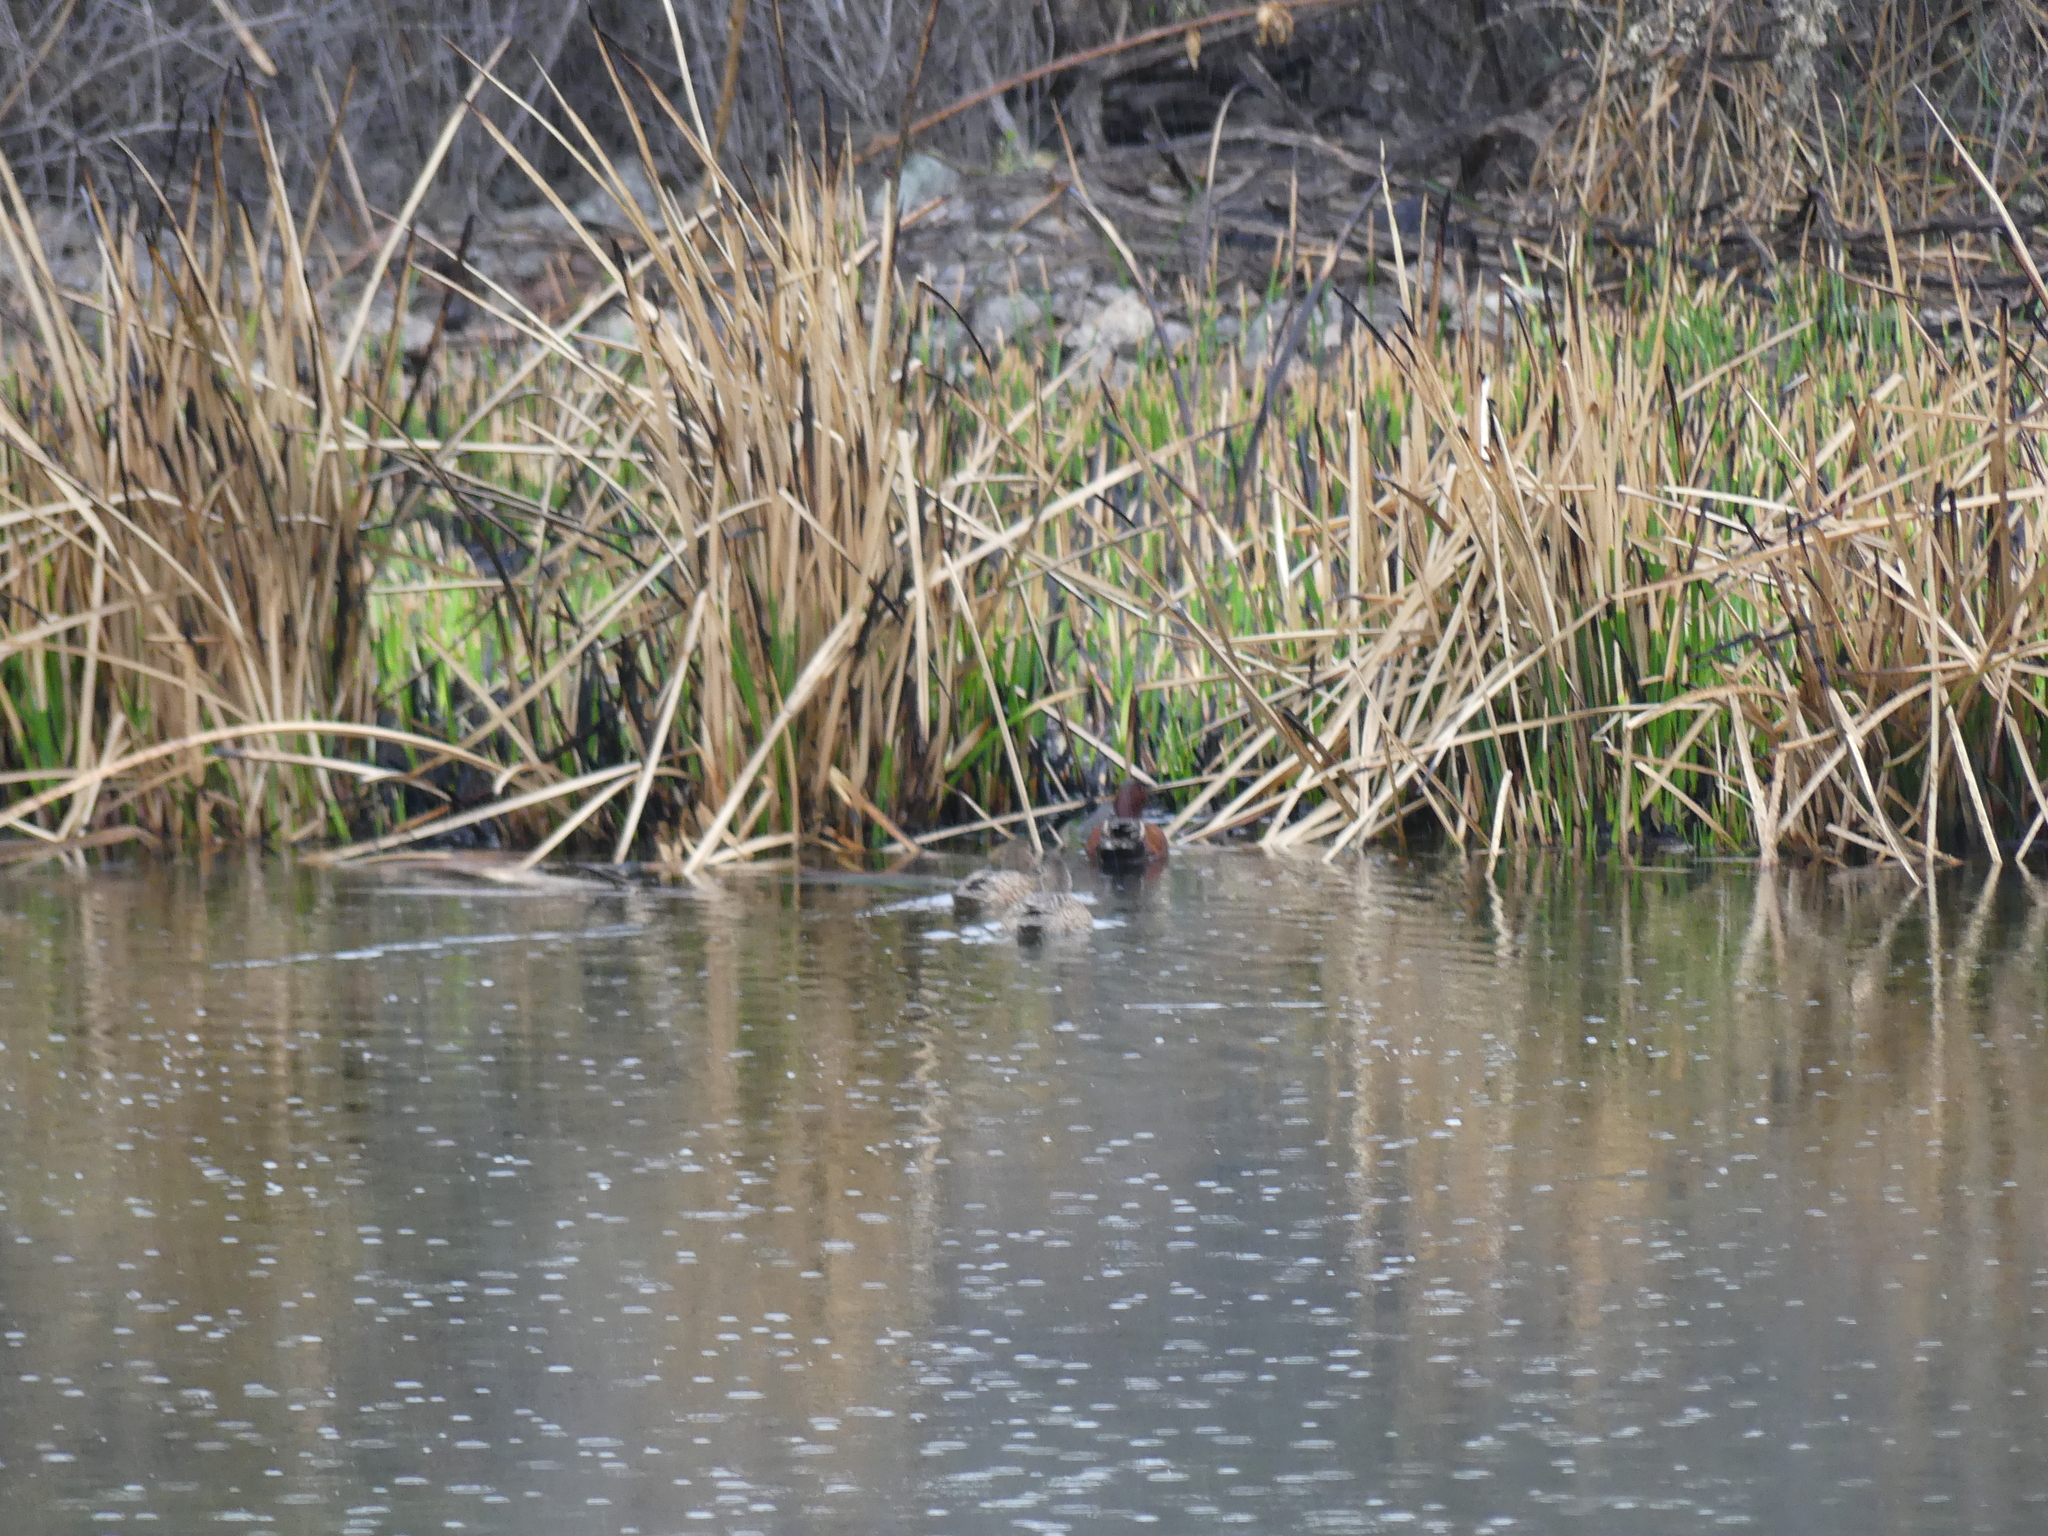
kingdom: Animalia
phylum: Chordata
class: Aves
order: Anseriformes
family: Anatidae
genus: Spatula
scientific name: Spatula cyanoptera
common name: Cinnamon teal
